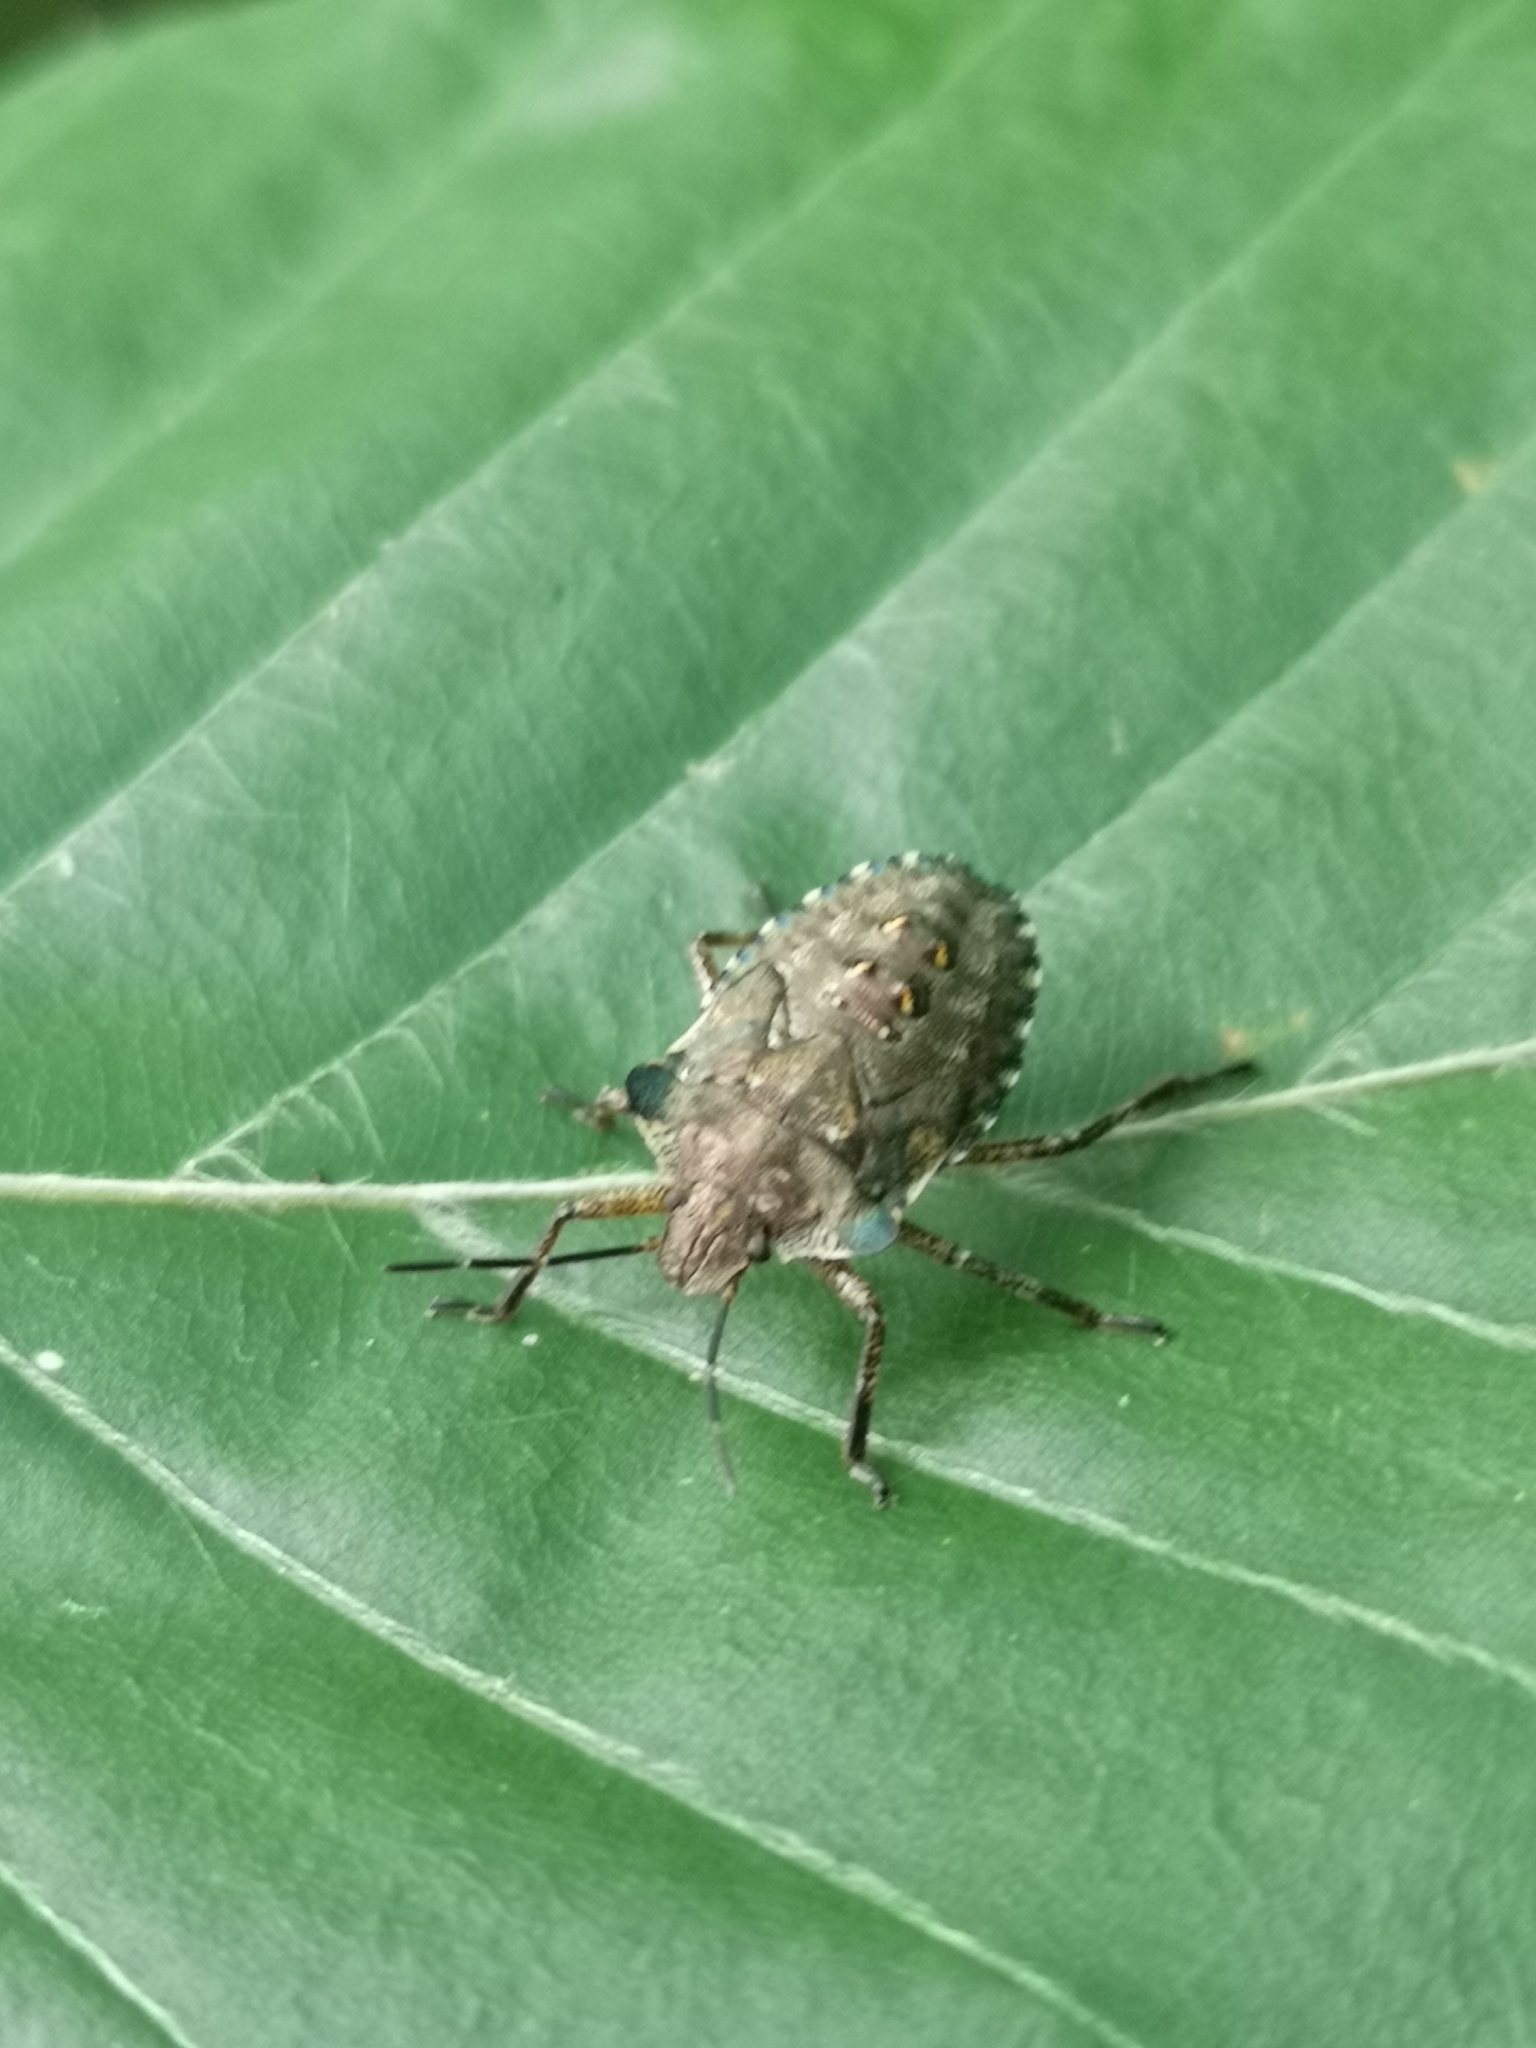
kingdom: Animalia
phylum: Arthropoda
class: Insecta
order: Hemiptera
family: Pentatomidae
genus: Pentatoma
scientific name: Pentatoma rufipes
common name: Forest bug
